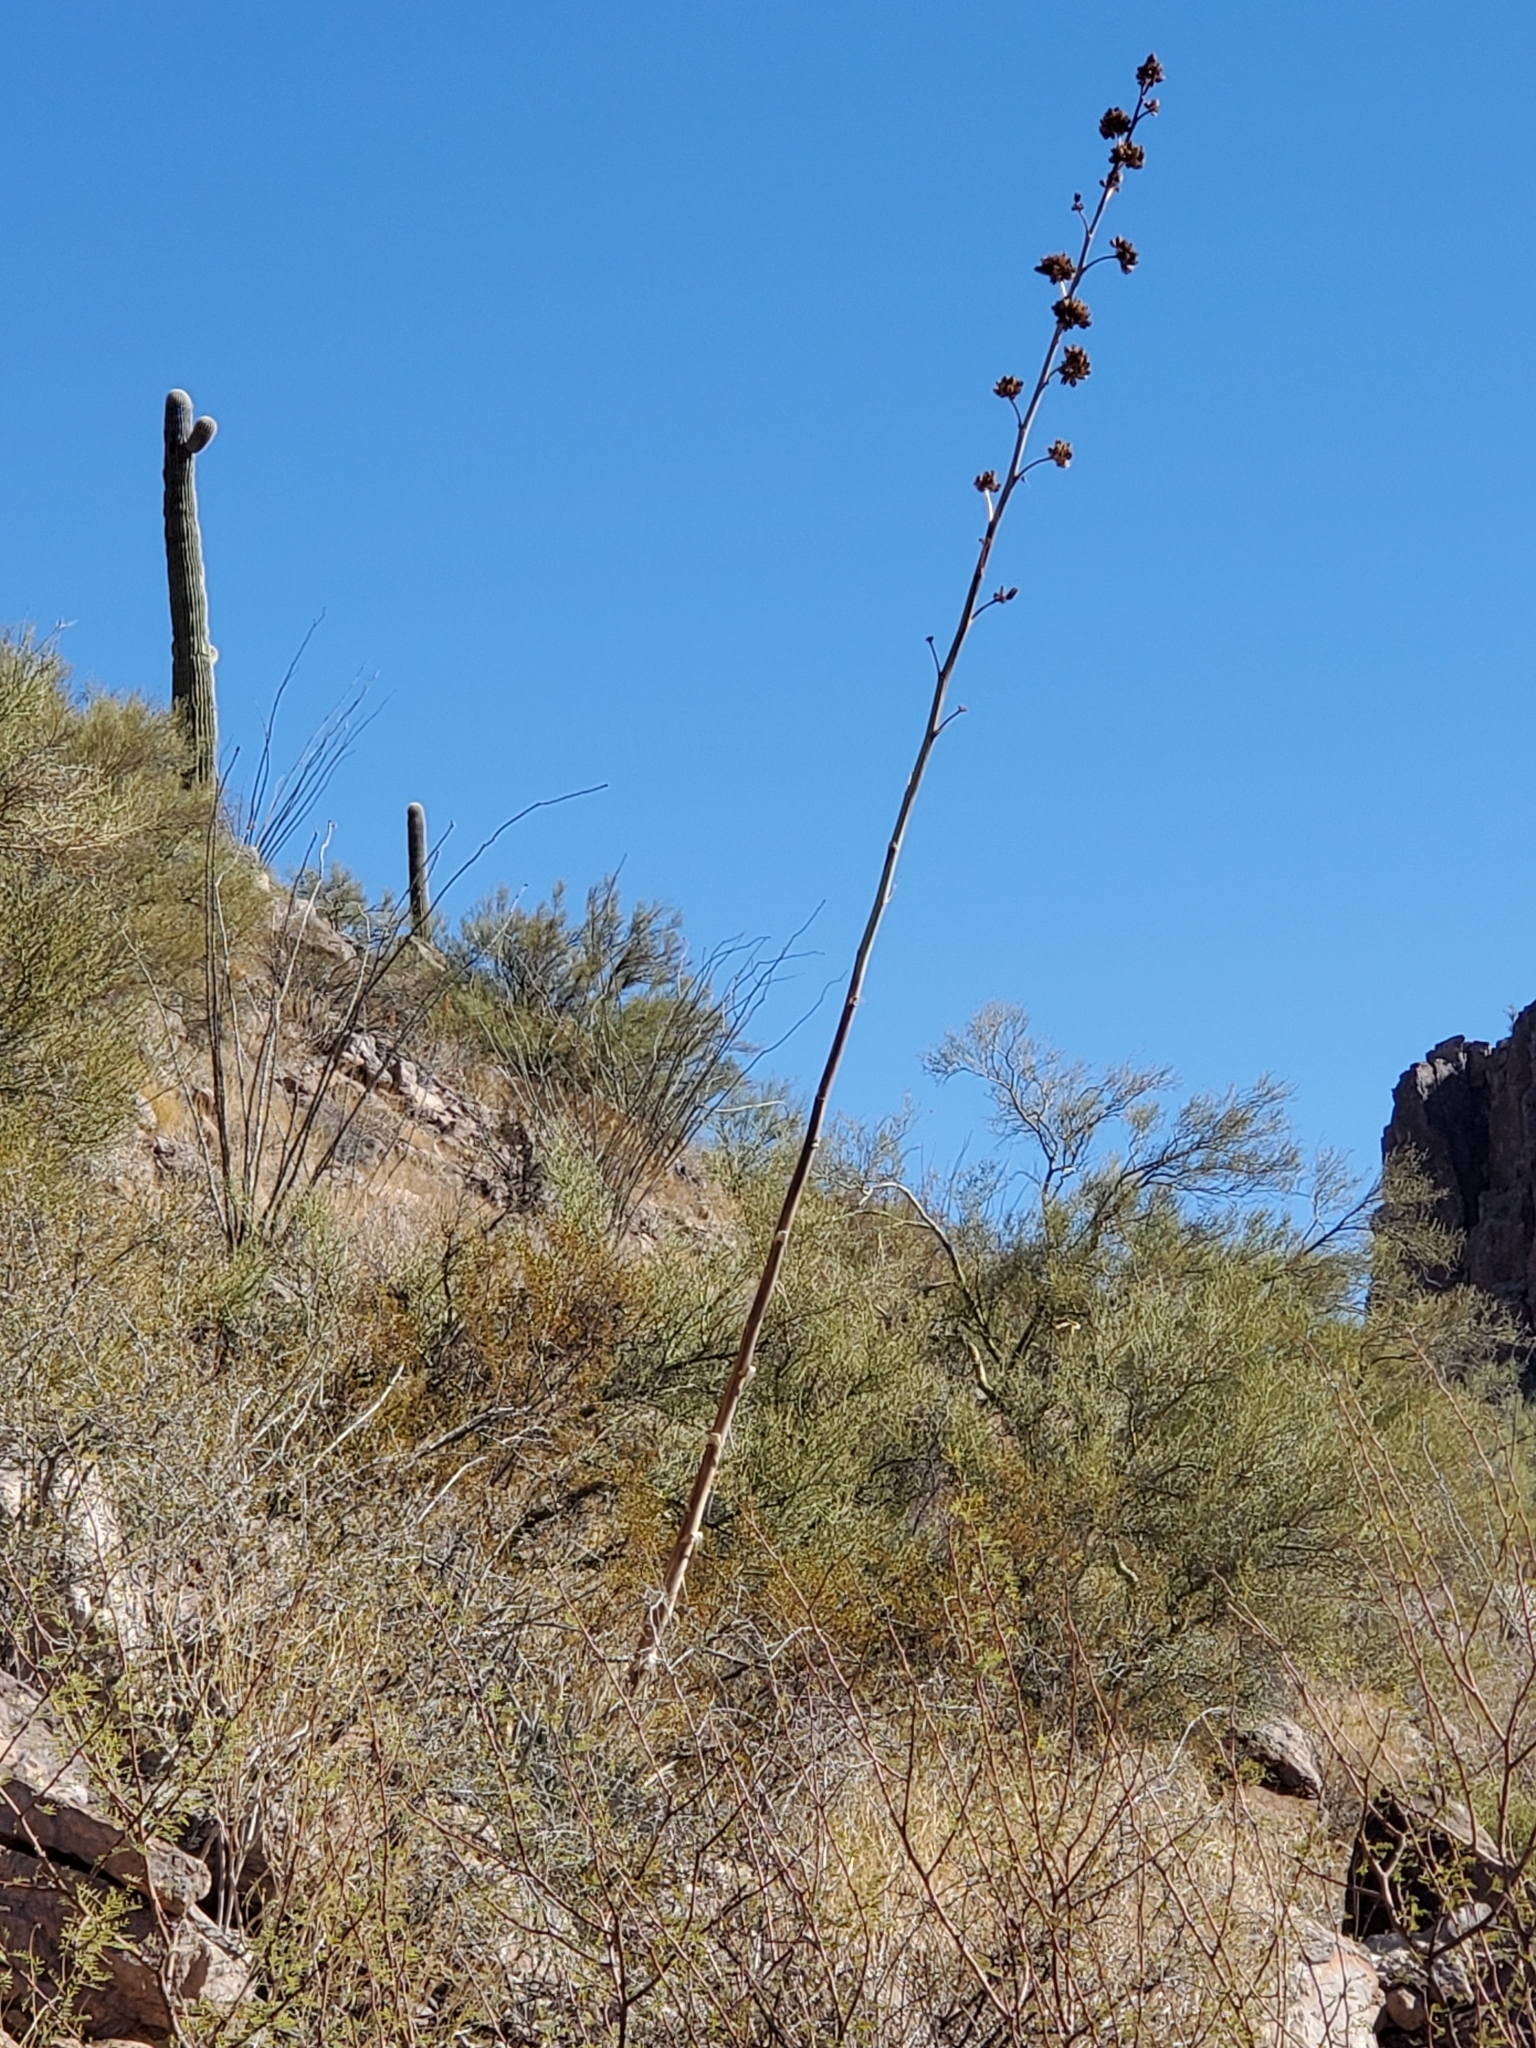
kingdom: Plantae
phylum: Tracheophyta
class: Liliopsida
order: Asparagales
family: Asparagaceae
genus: Agave
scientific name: Agave simplex
